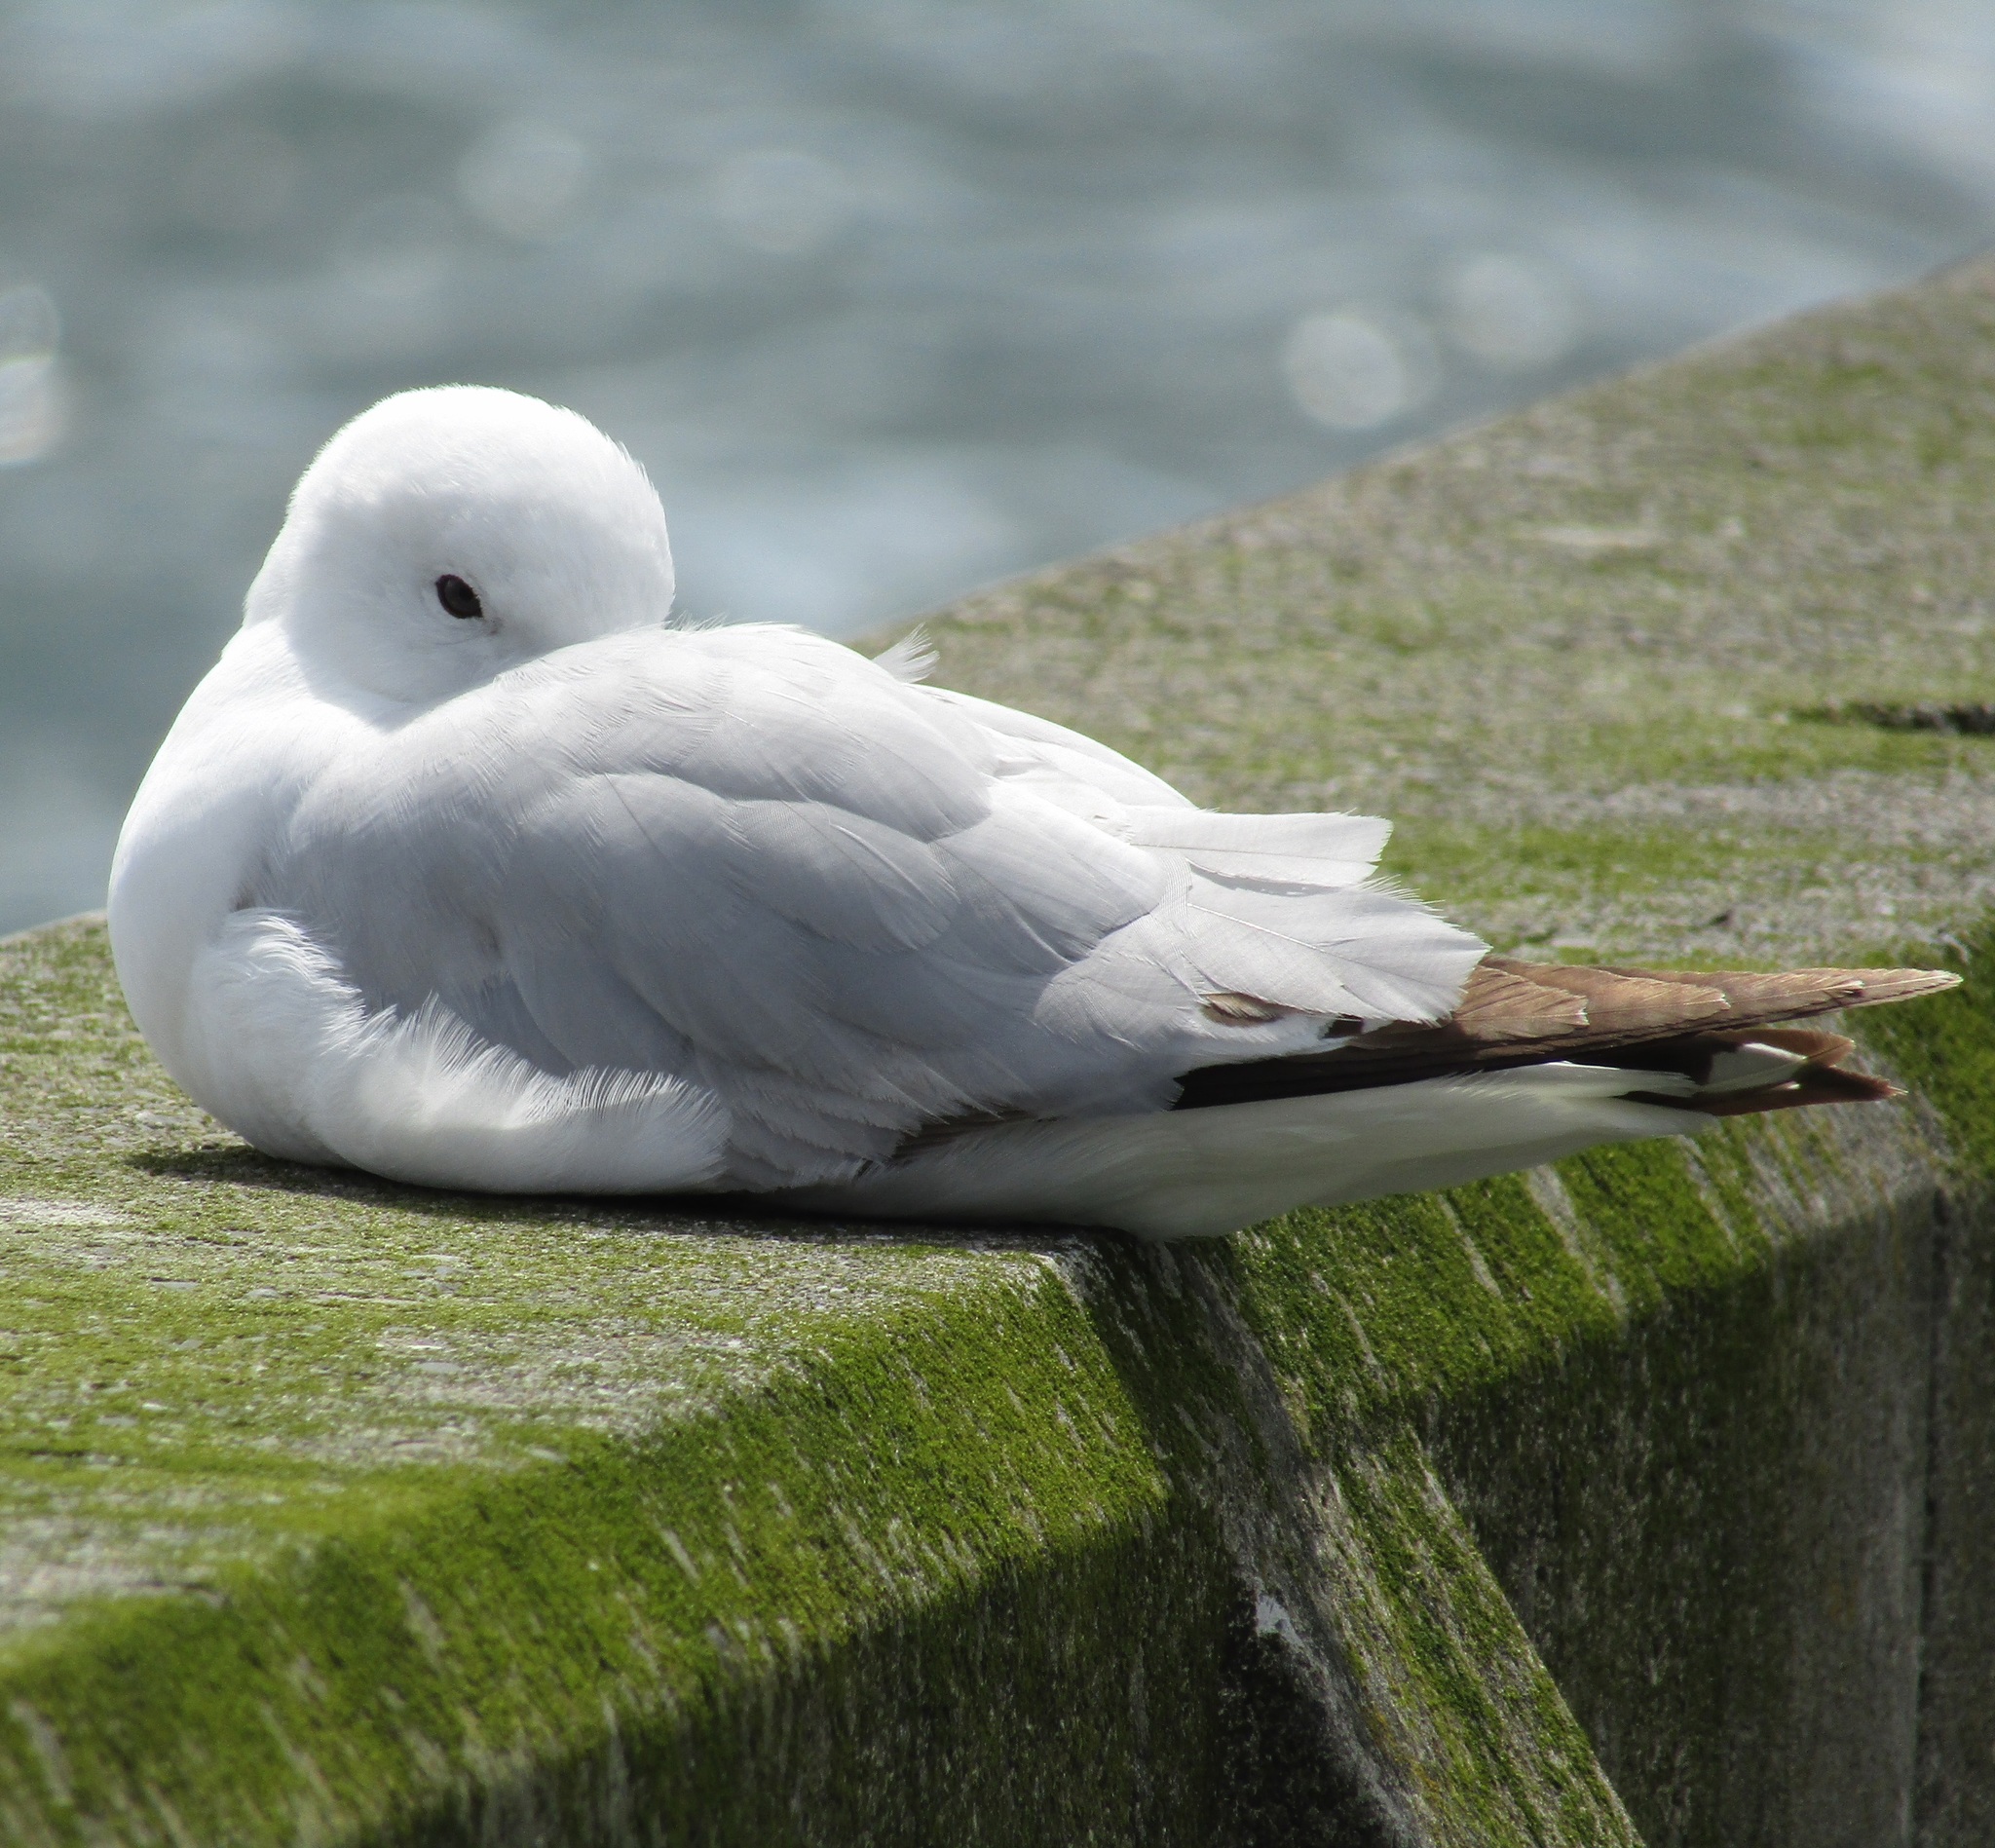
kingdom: Animalia
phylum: Chordata
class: Aves
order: Charadriiformes
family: Laridae
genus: Chroicocephalus
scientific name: Chroicocephalus novaehollandiae
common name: Silver gull
